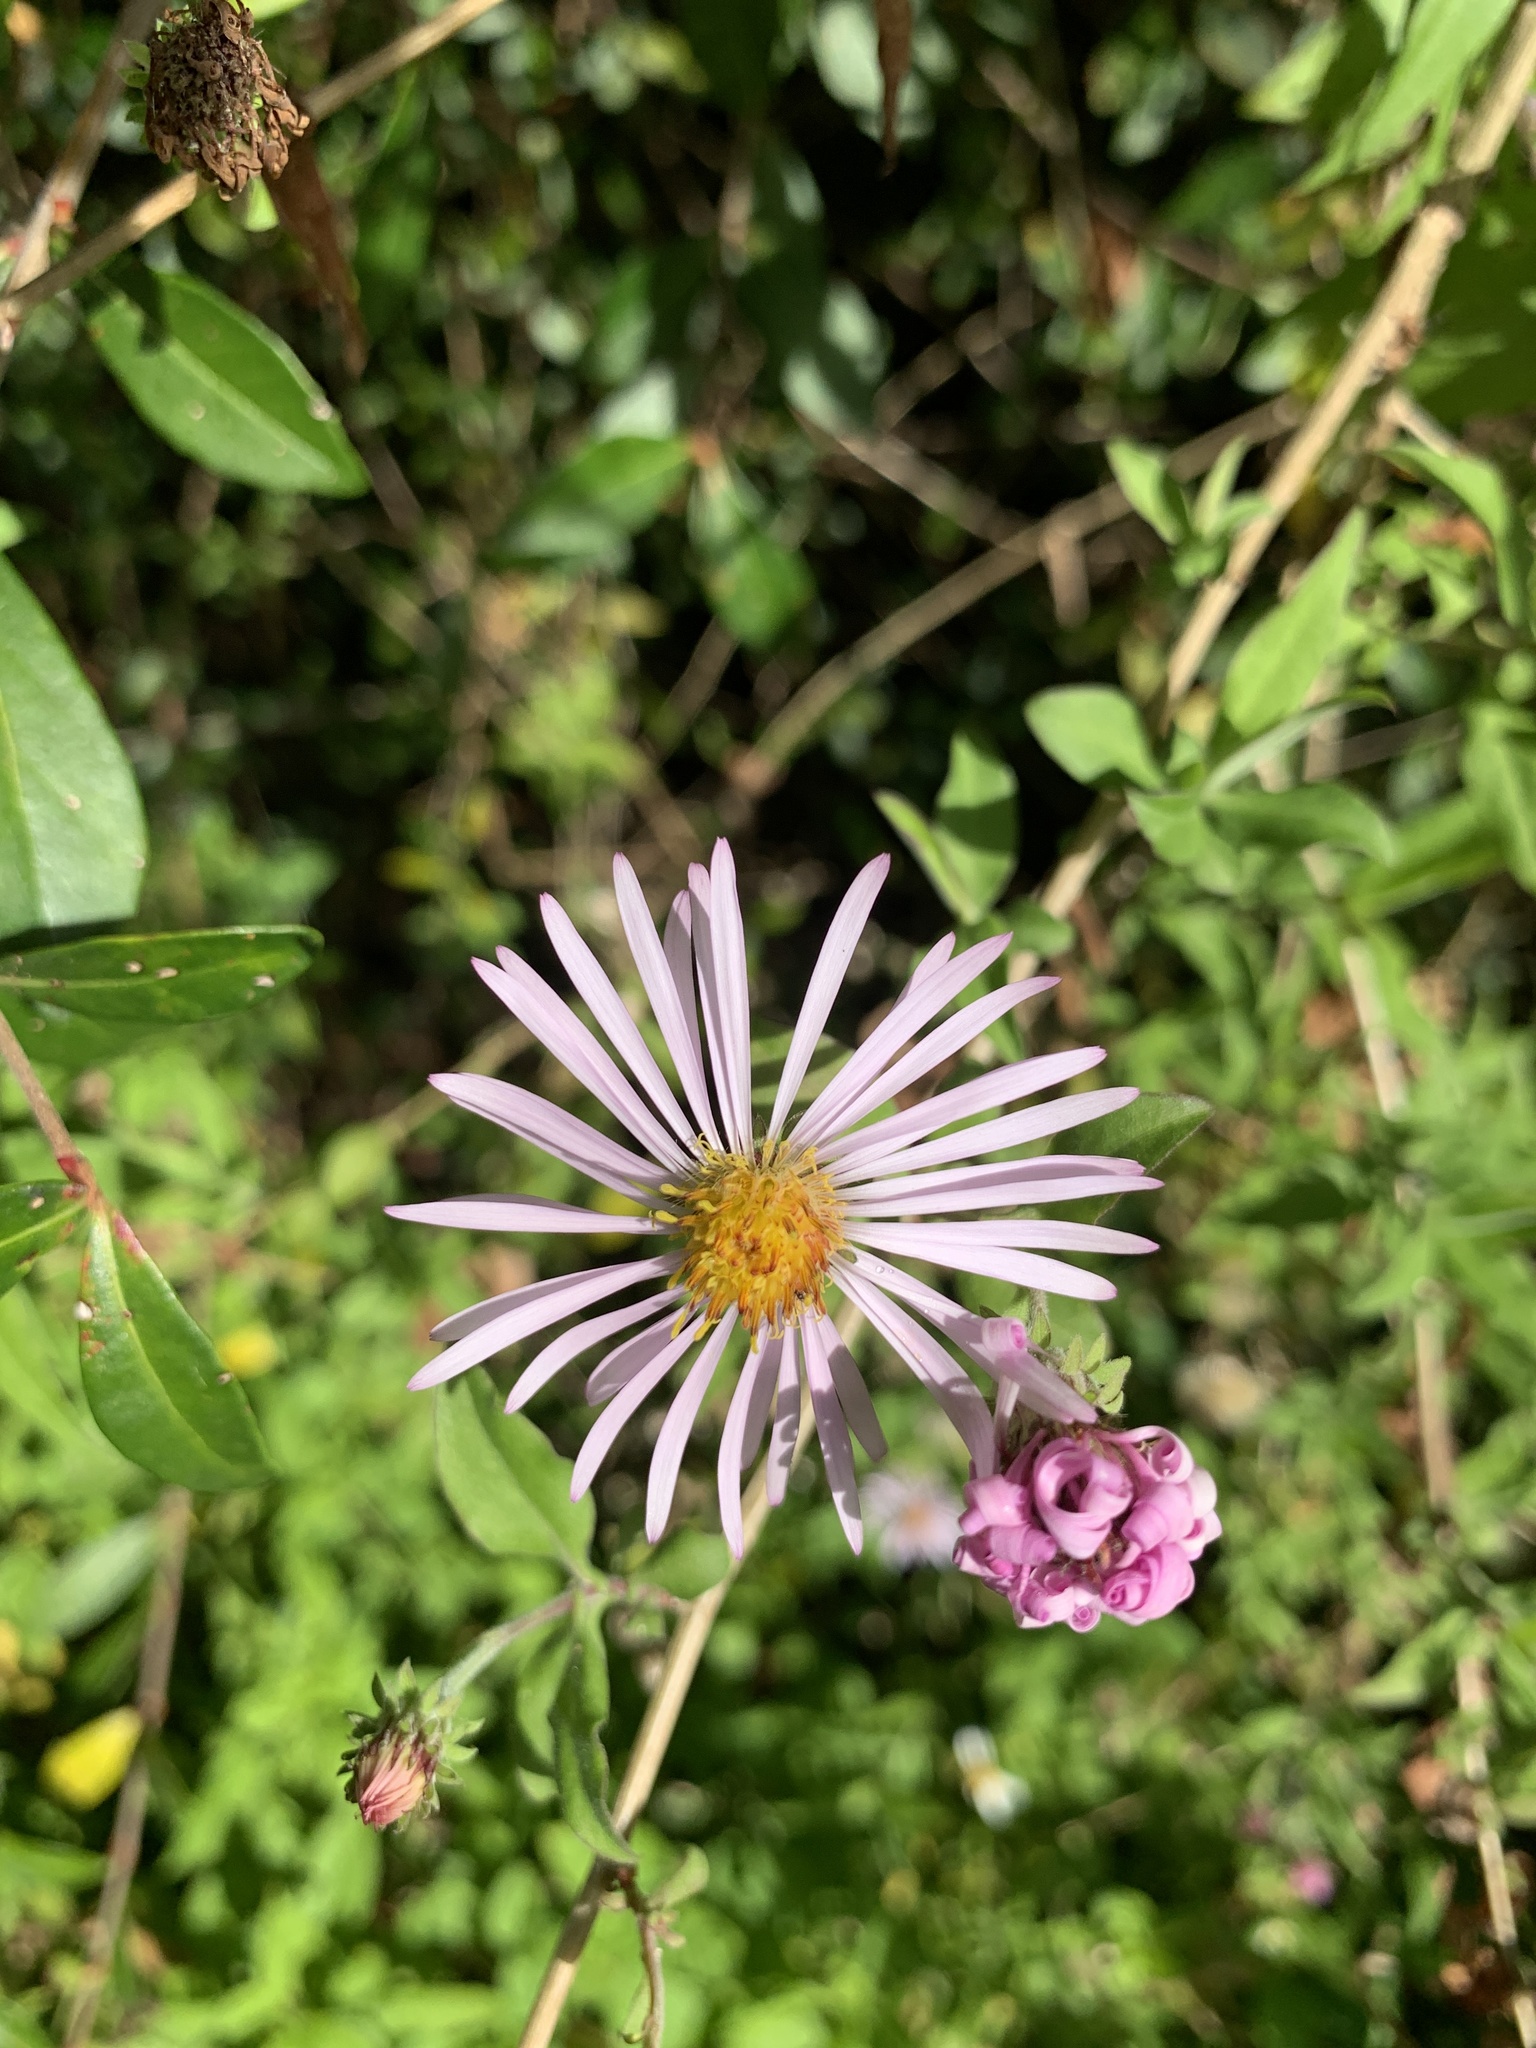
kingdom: Plantae
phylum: Tracheophyta
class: Magnoliopsida
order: Asterales
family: Asteraceae
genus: Ampelaster
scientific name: Ampelaster carolinianus
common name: Climbing aster
